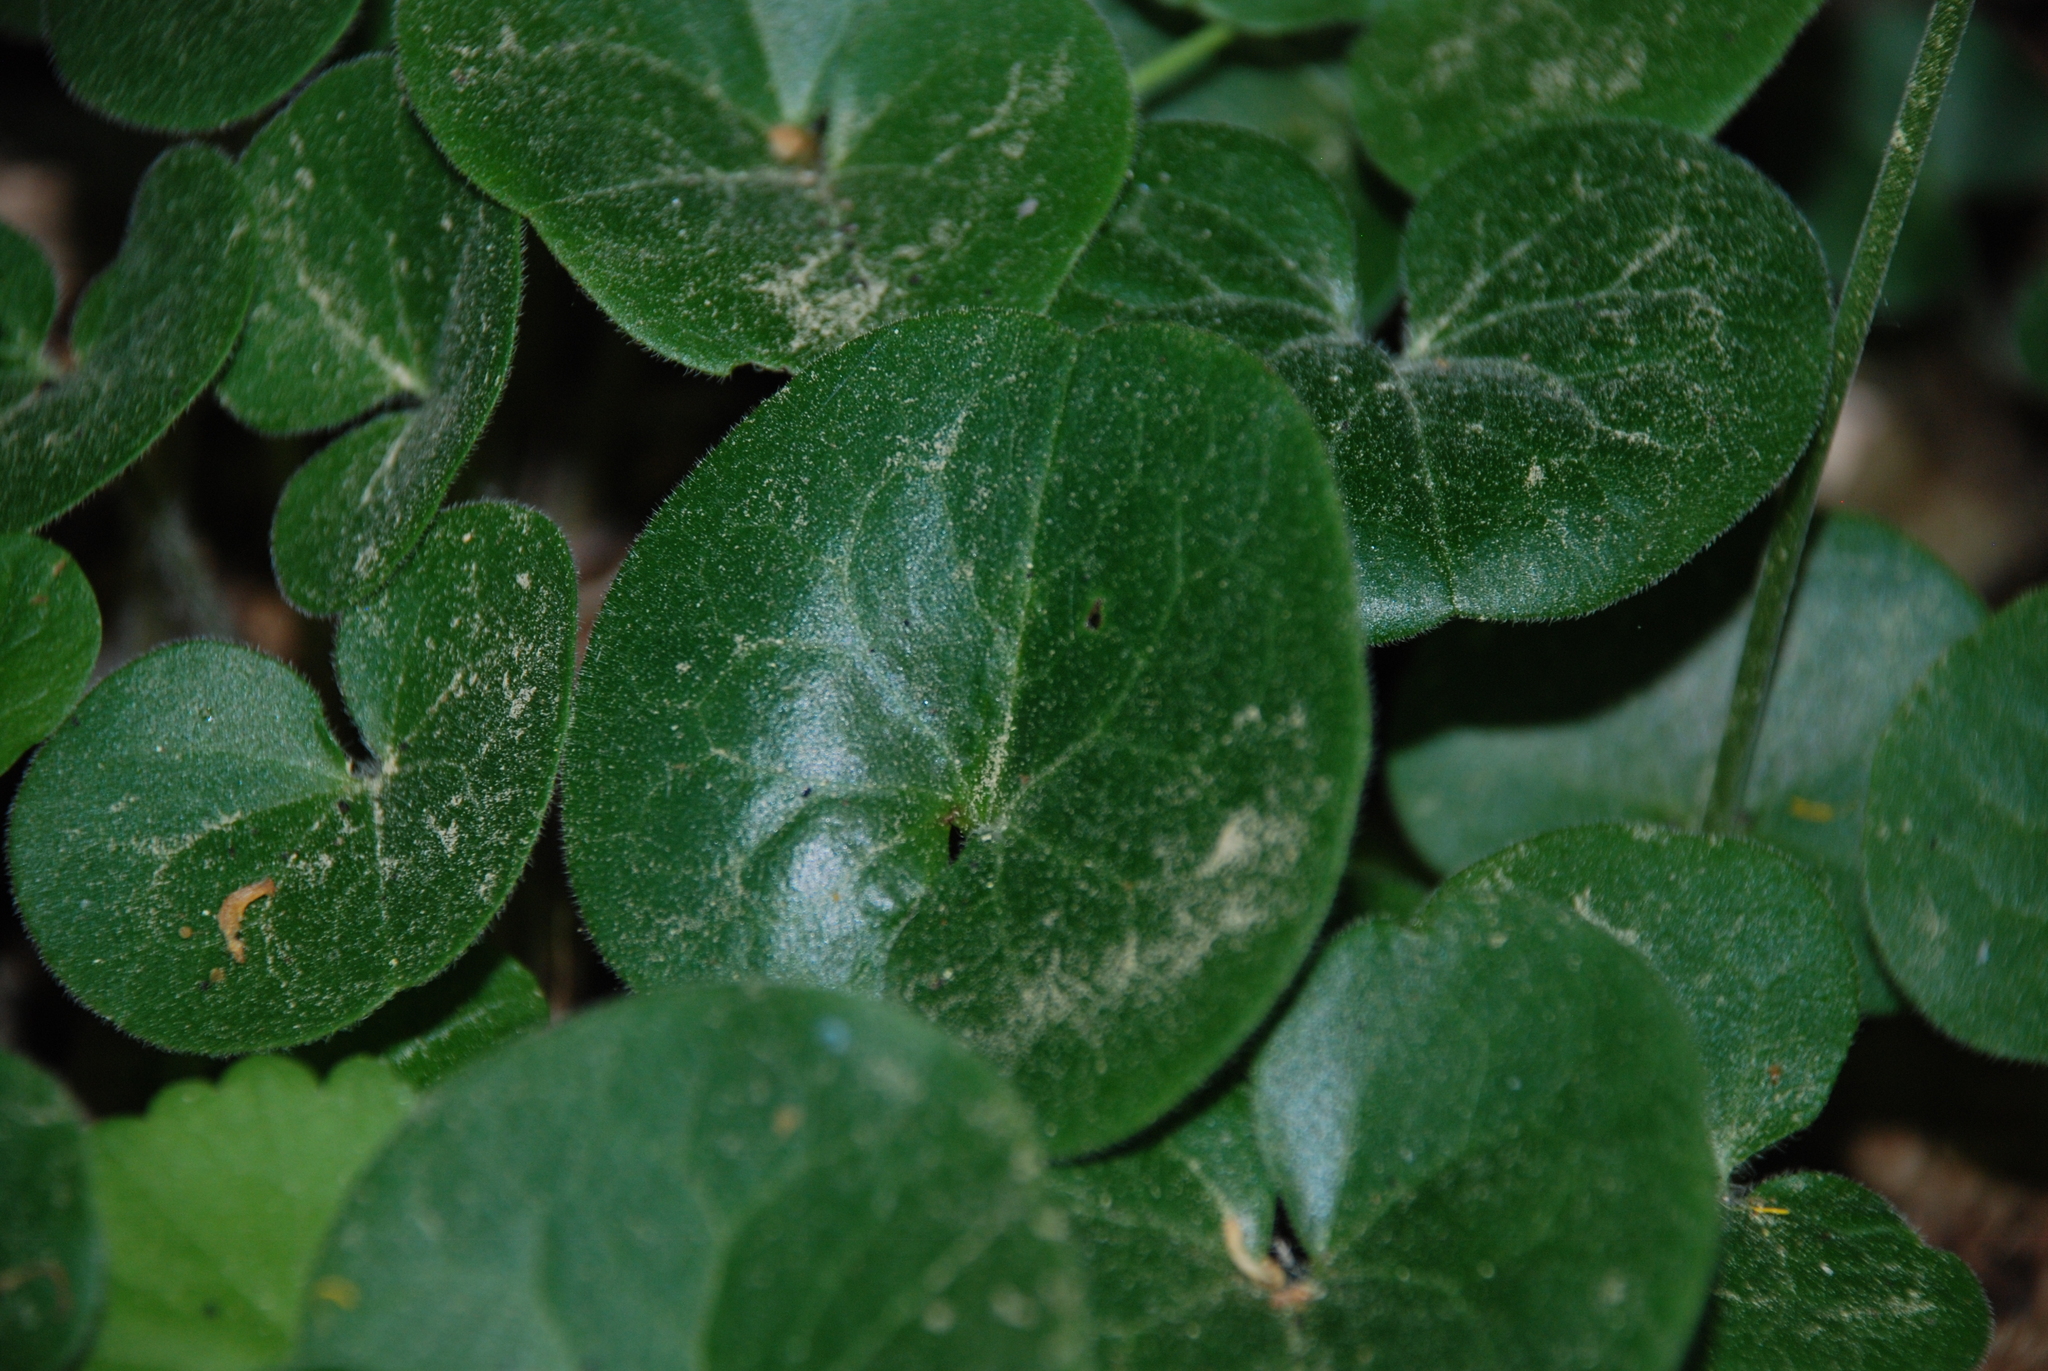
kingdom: Plantae
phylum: Tracheophyta
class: Magnoliopsida
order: Piperales
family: Aristolochiaceae
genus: Asarum
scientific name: Asarum europaeum
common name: Asarabacca
